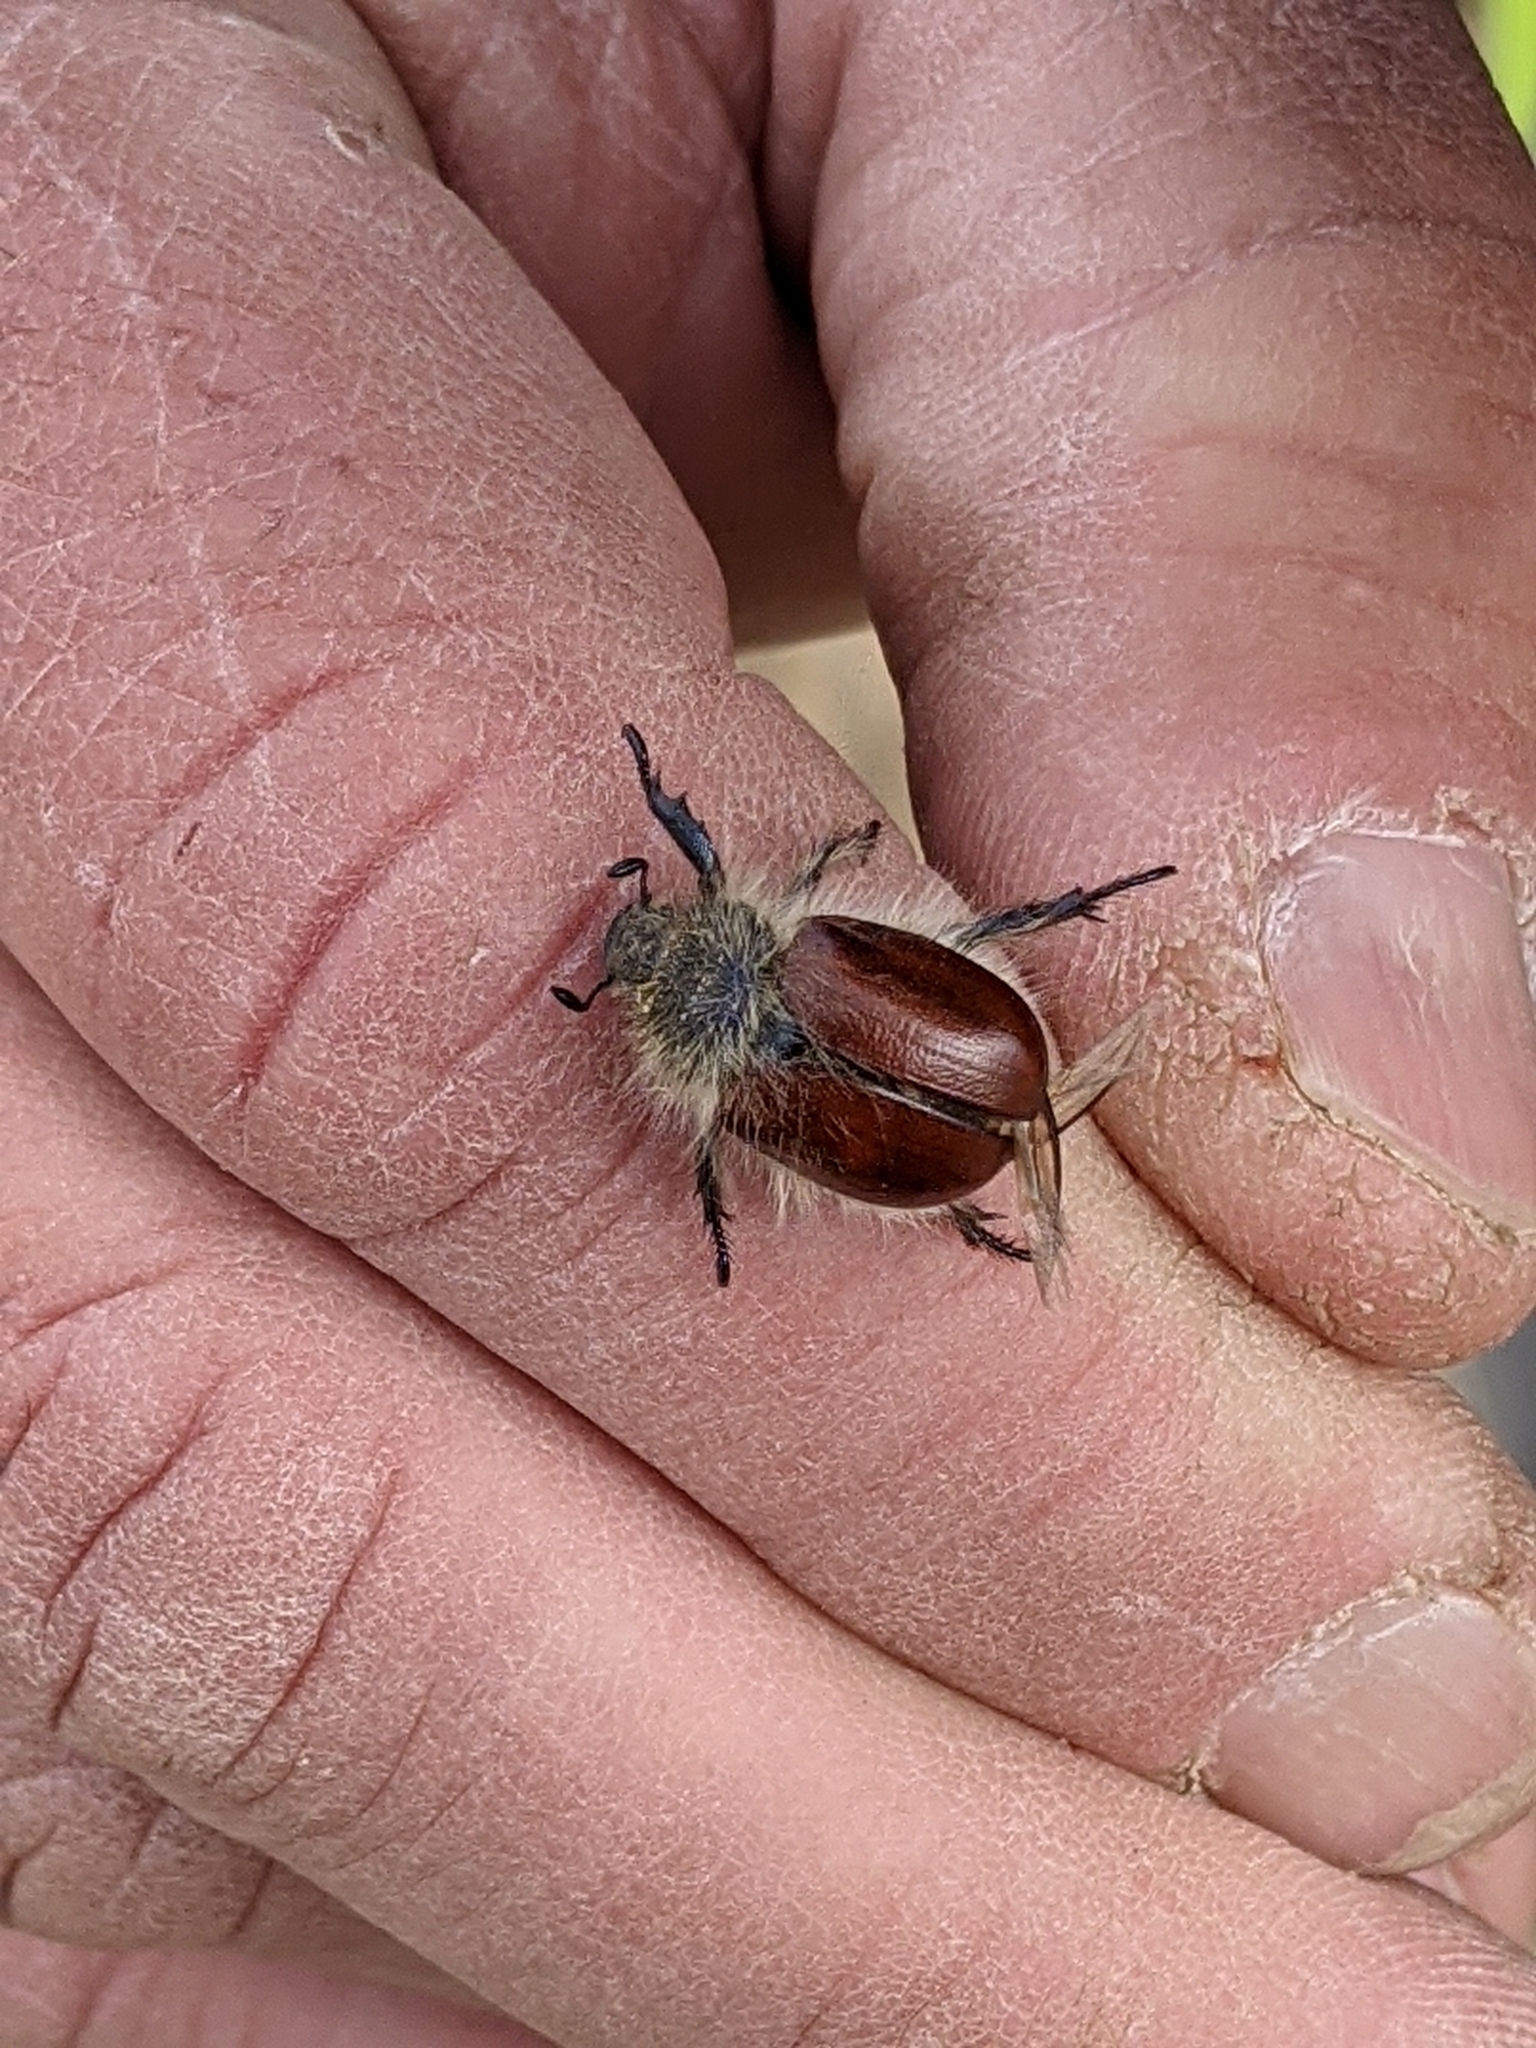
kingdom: Animalia
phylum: Arthropoda
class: Insecta
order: Coleoptera
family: Scarabaeidae
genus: Paracotalpa
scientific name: Paracotalpa ursina
